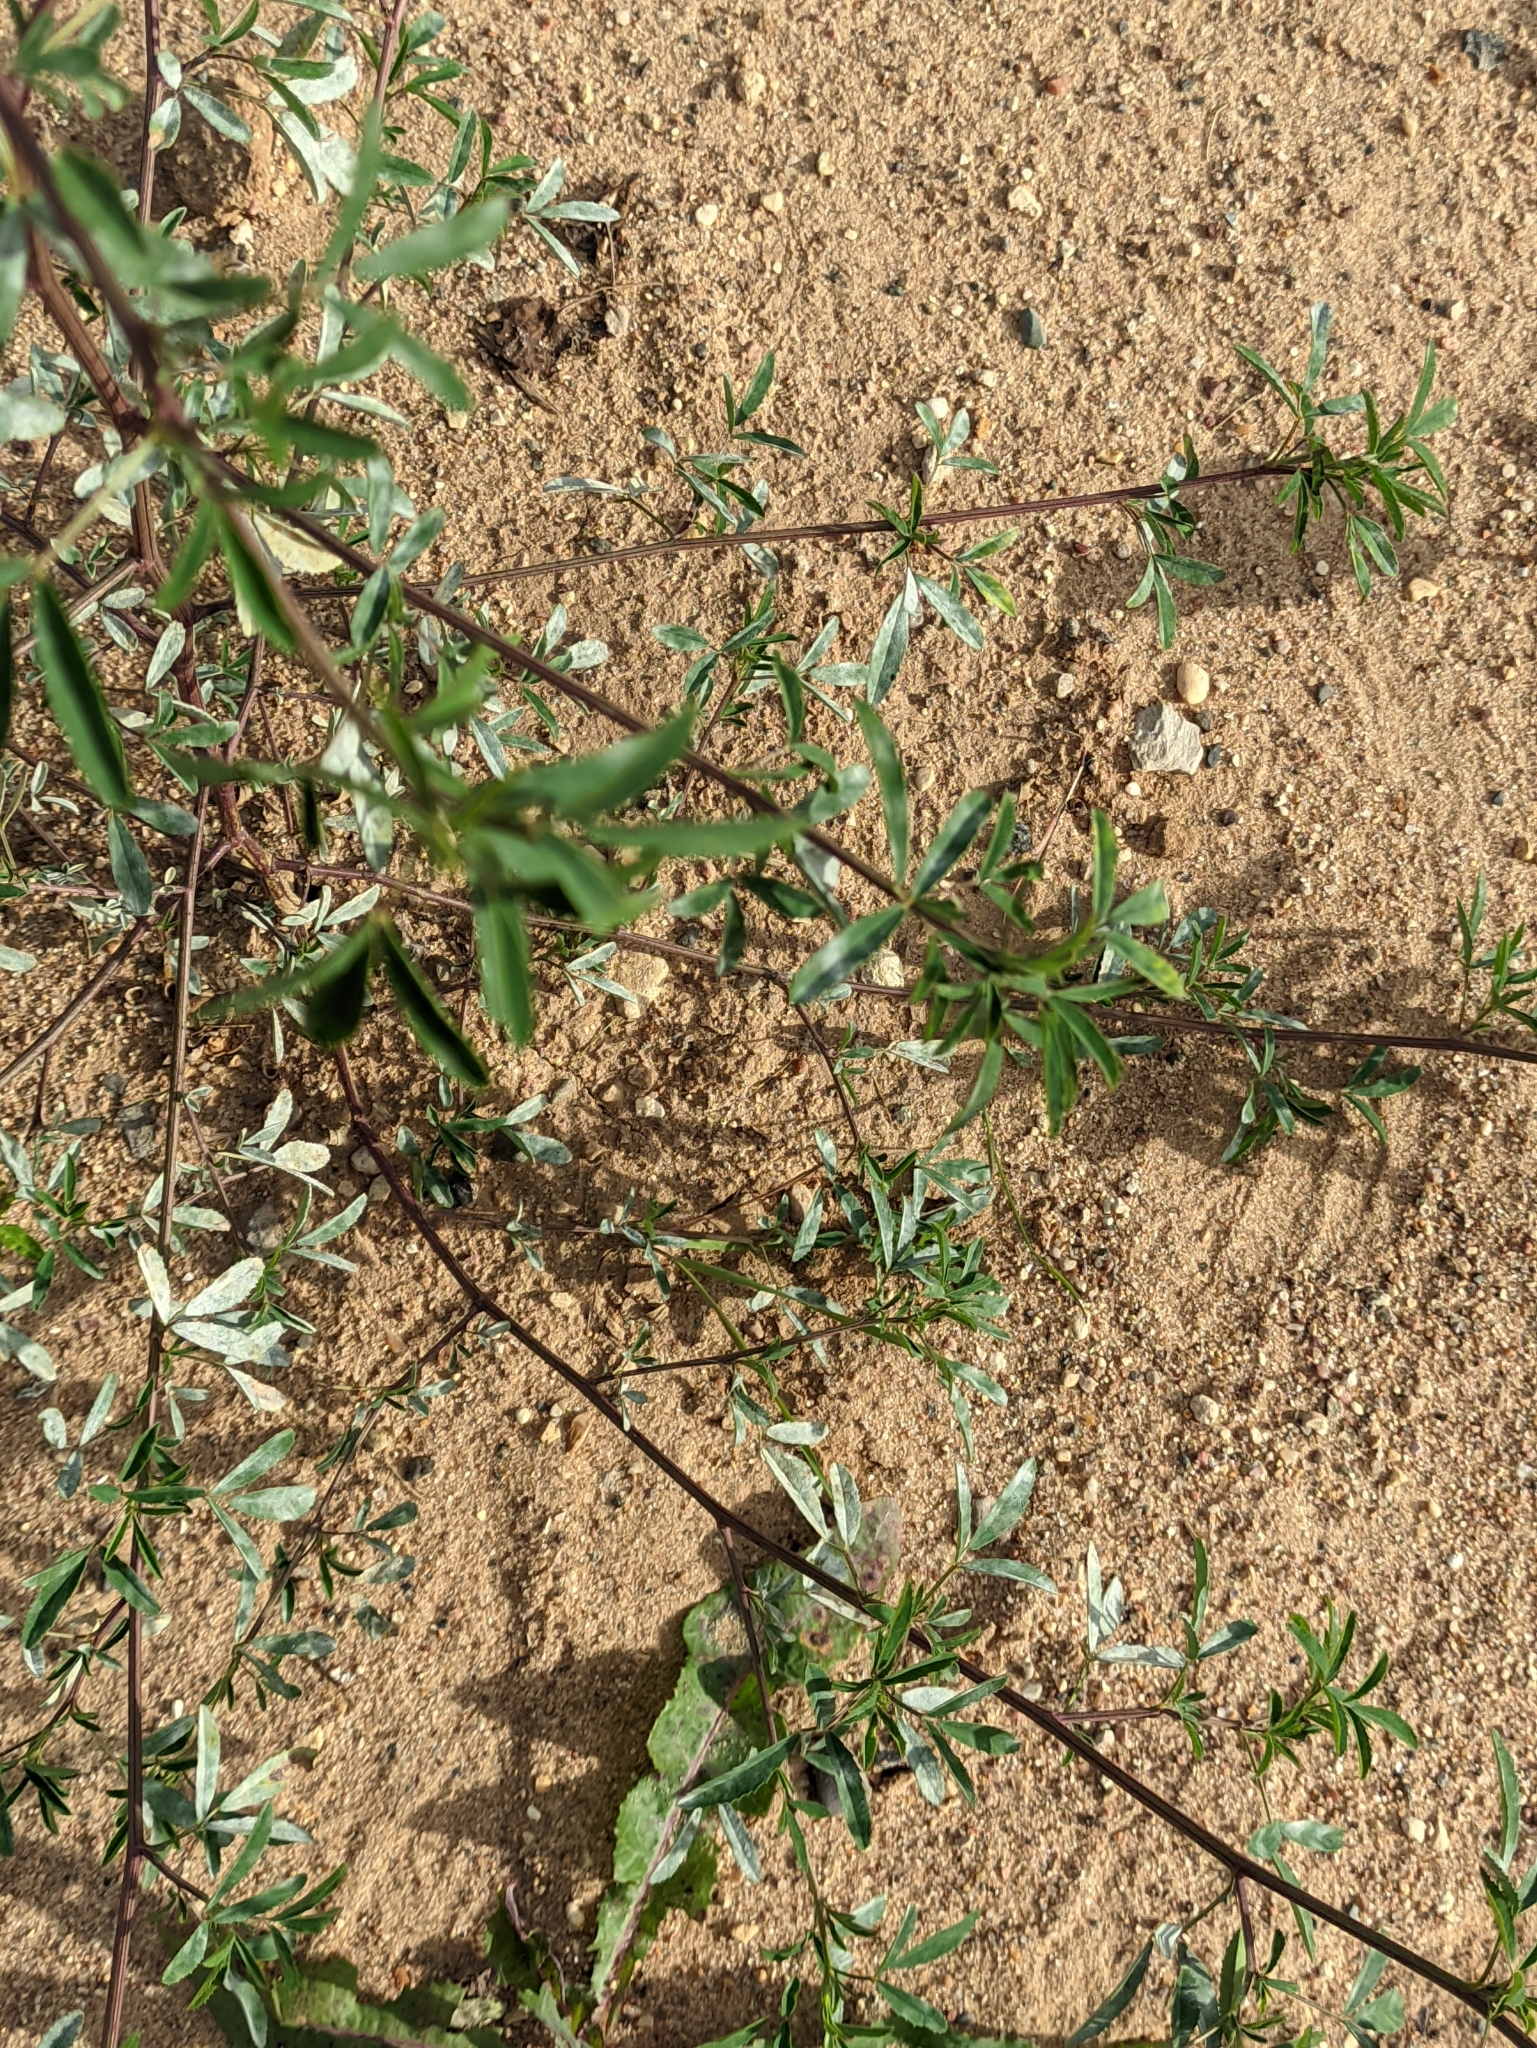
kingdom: Plantae
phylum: Tracheophyta
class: Magnoliopsida
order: Fabales
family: Fabaceae
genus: Melilotus
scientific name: Melilotus albus
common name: White melilot
